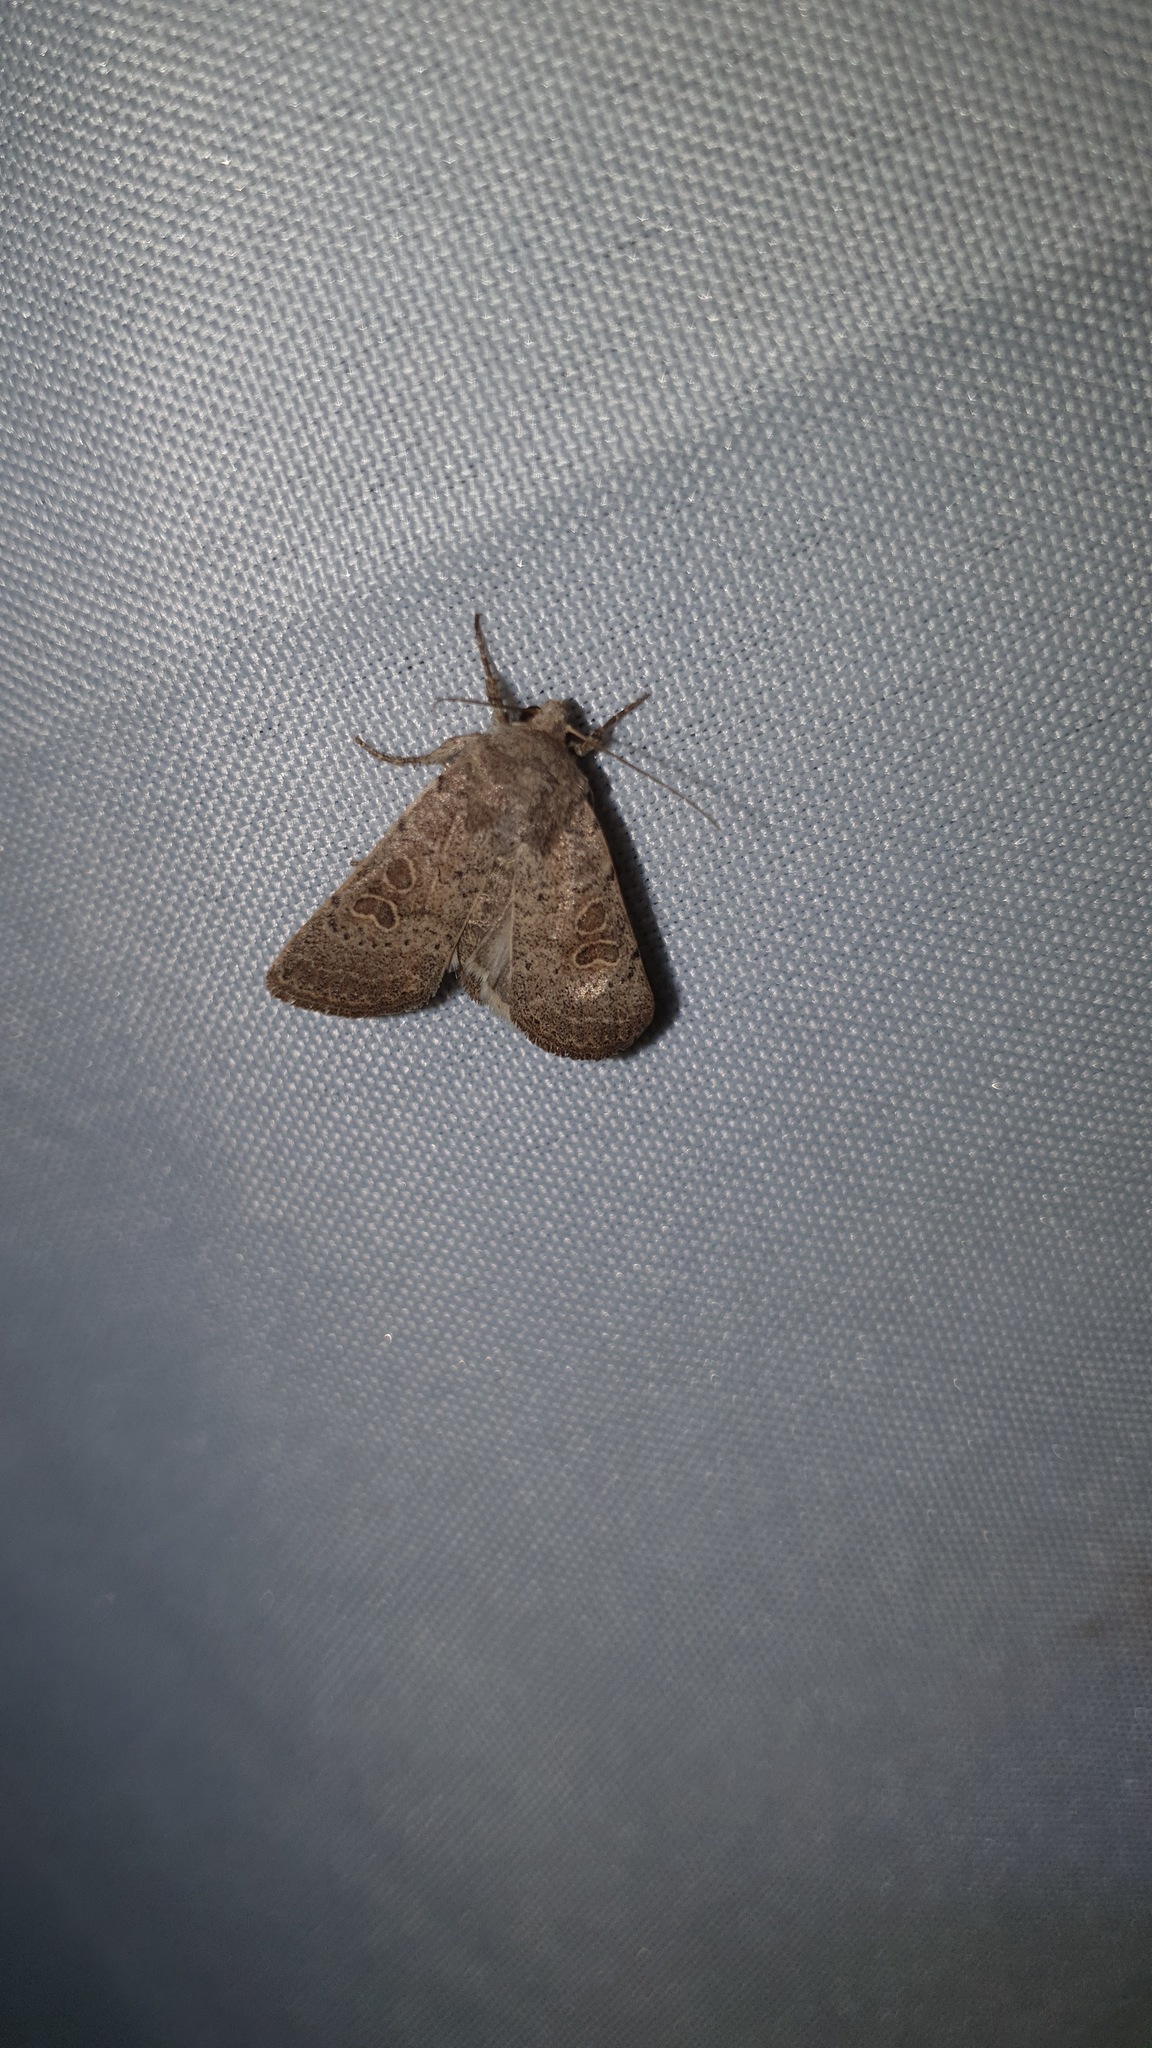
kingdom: Animalia
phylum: Arthropoda
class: Insecta
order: Lepidoptera
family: Noctuidae
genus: Hoplodrina
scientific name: Hoplodrina ambigua
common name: Vine's rustic
